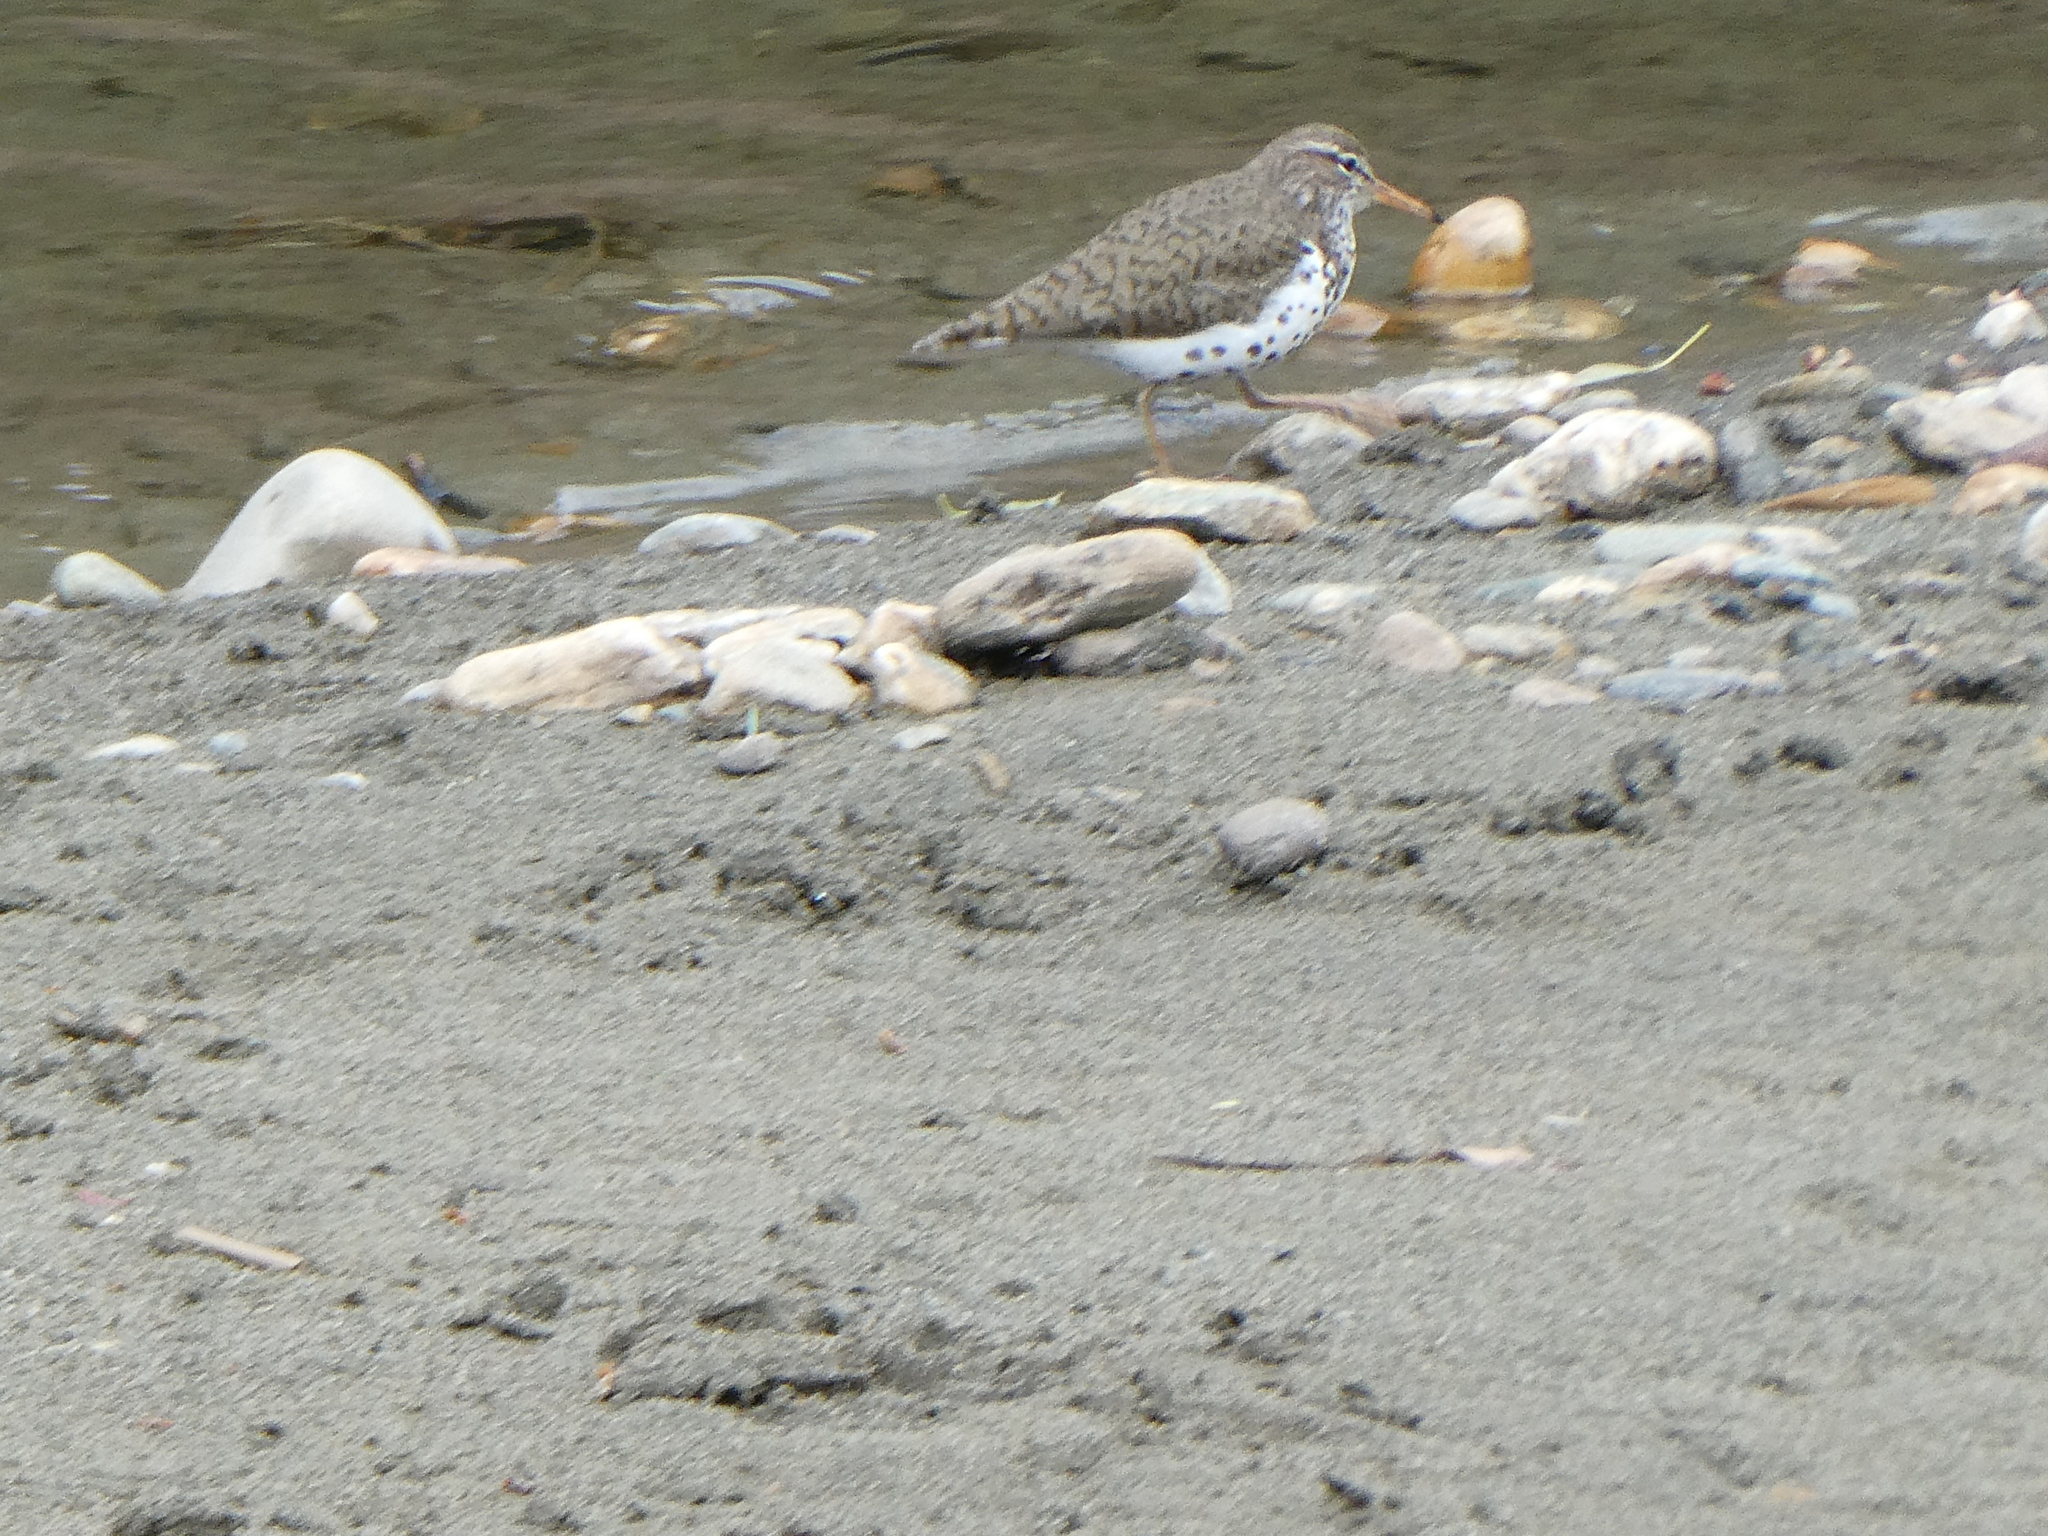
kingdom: Animalia
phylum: Chordata
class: Aves
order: Charadriiformes
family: Scolopacidae
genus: Actitis
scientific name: Actitis macularius
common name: Spotted sandpiper
